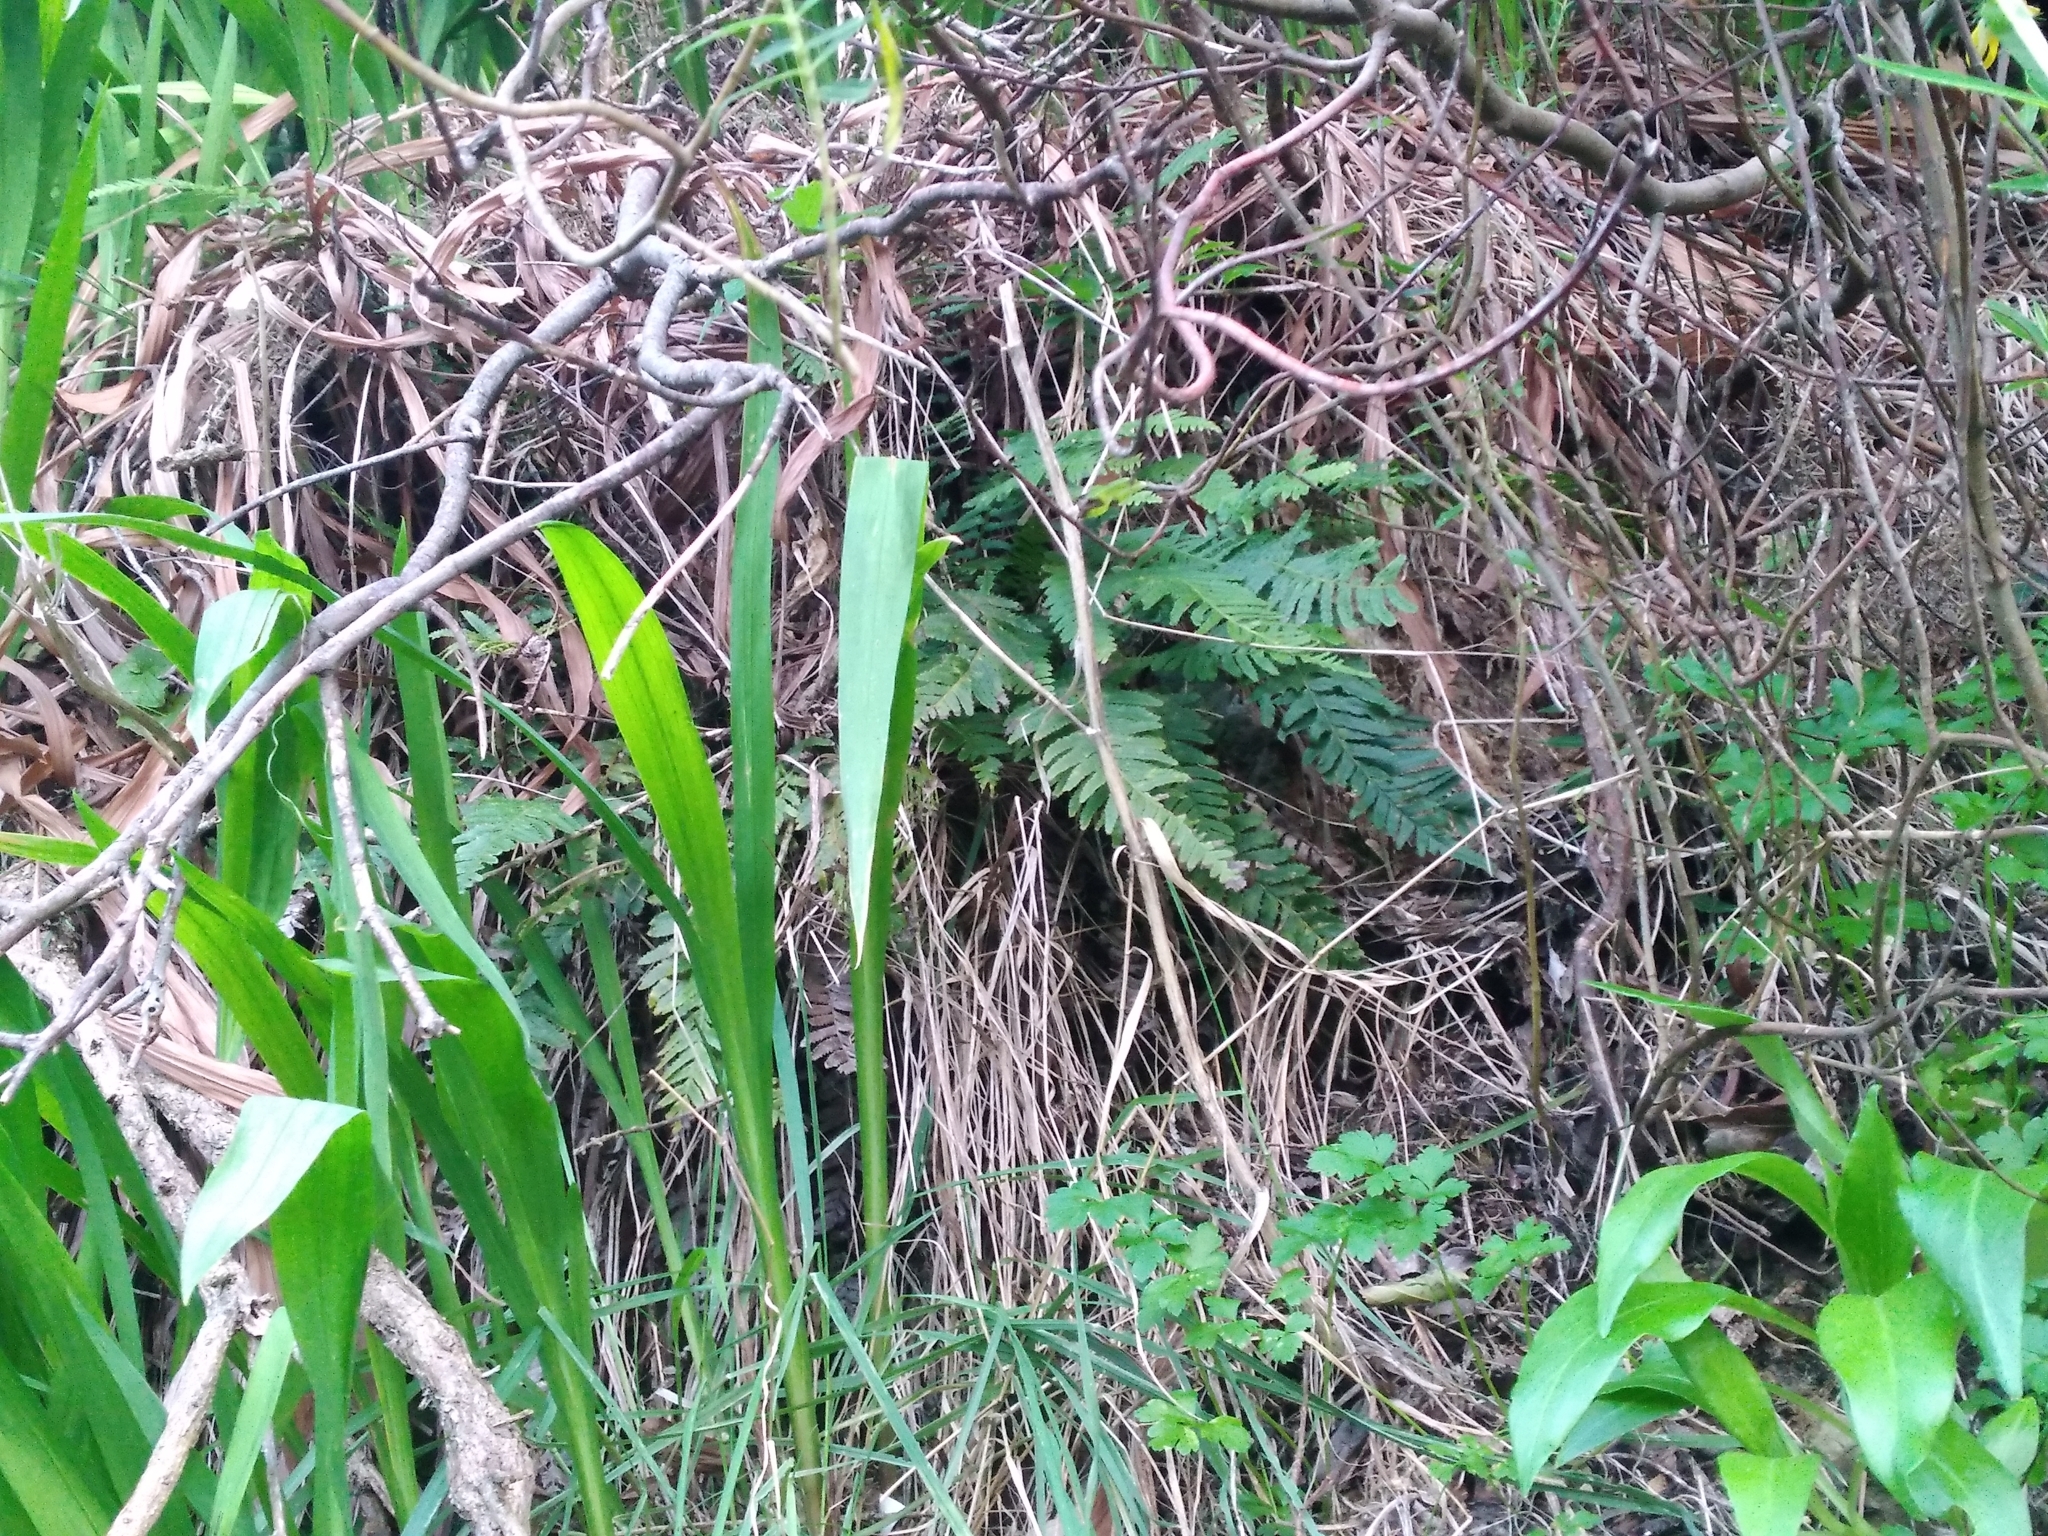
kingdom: Plantae
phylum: Tracheophyta
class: Polypodiopsida
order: Polypodiales
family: Blechnaceae
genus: Doodia
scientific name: Doodia australis
